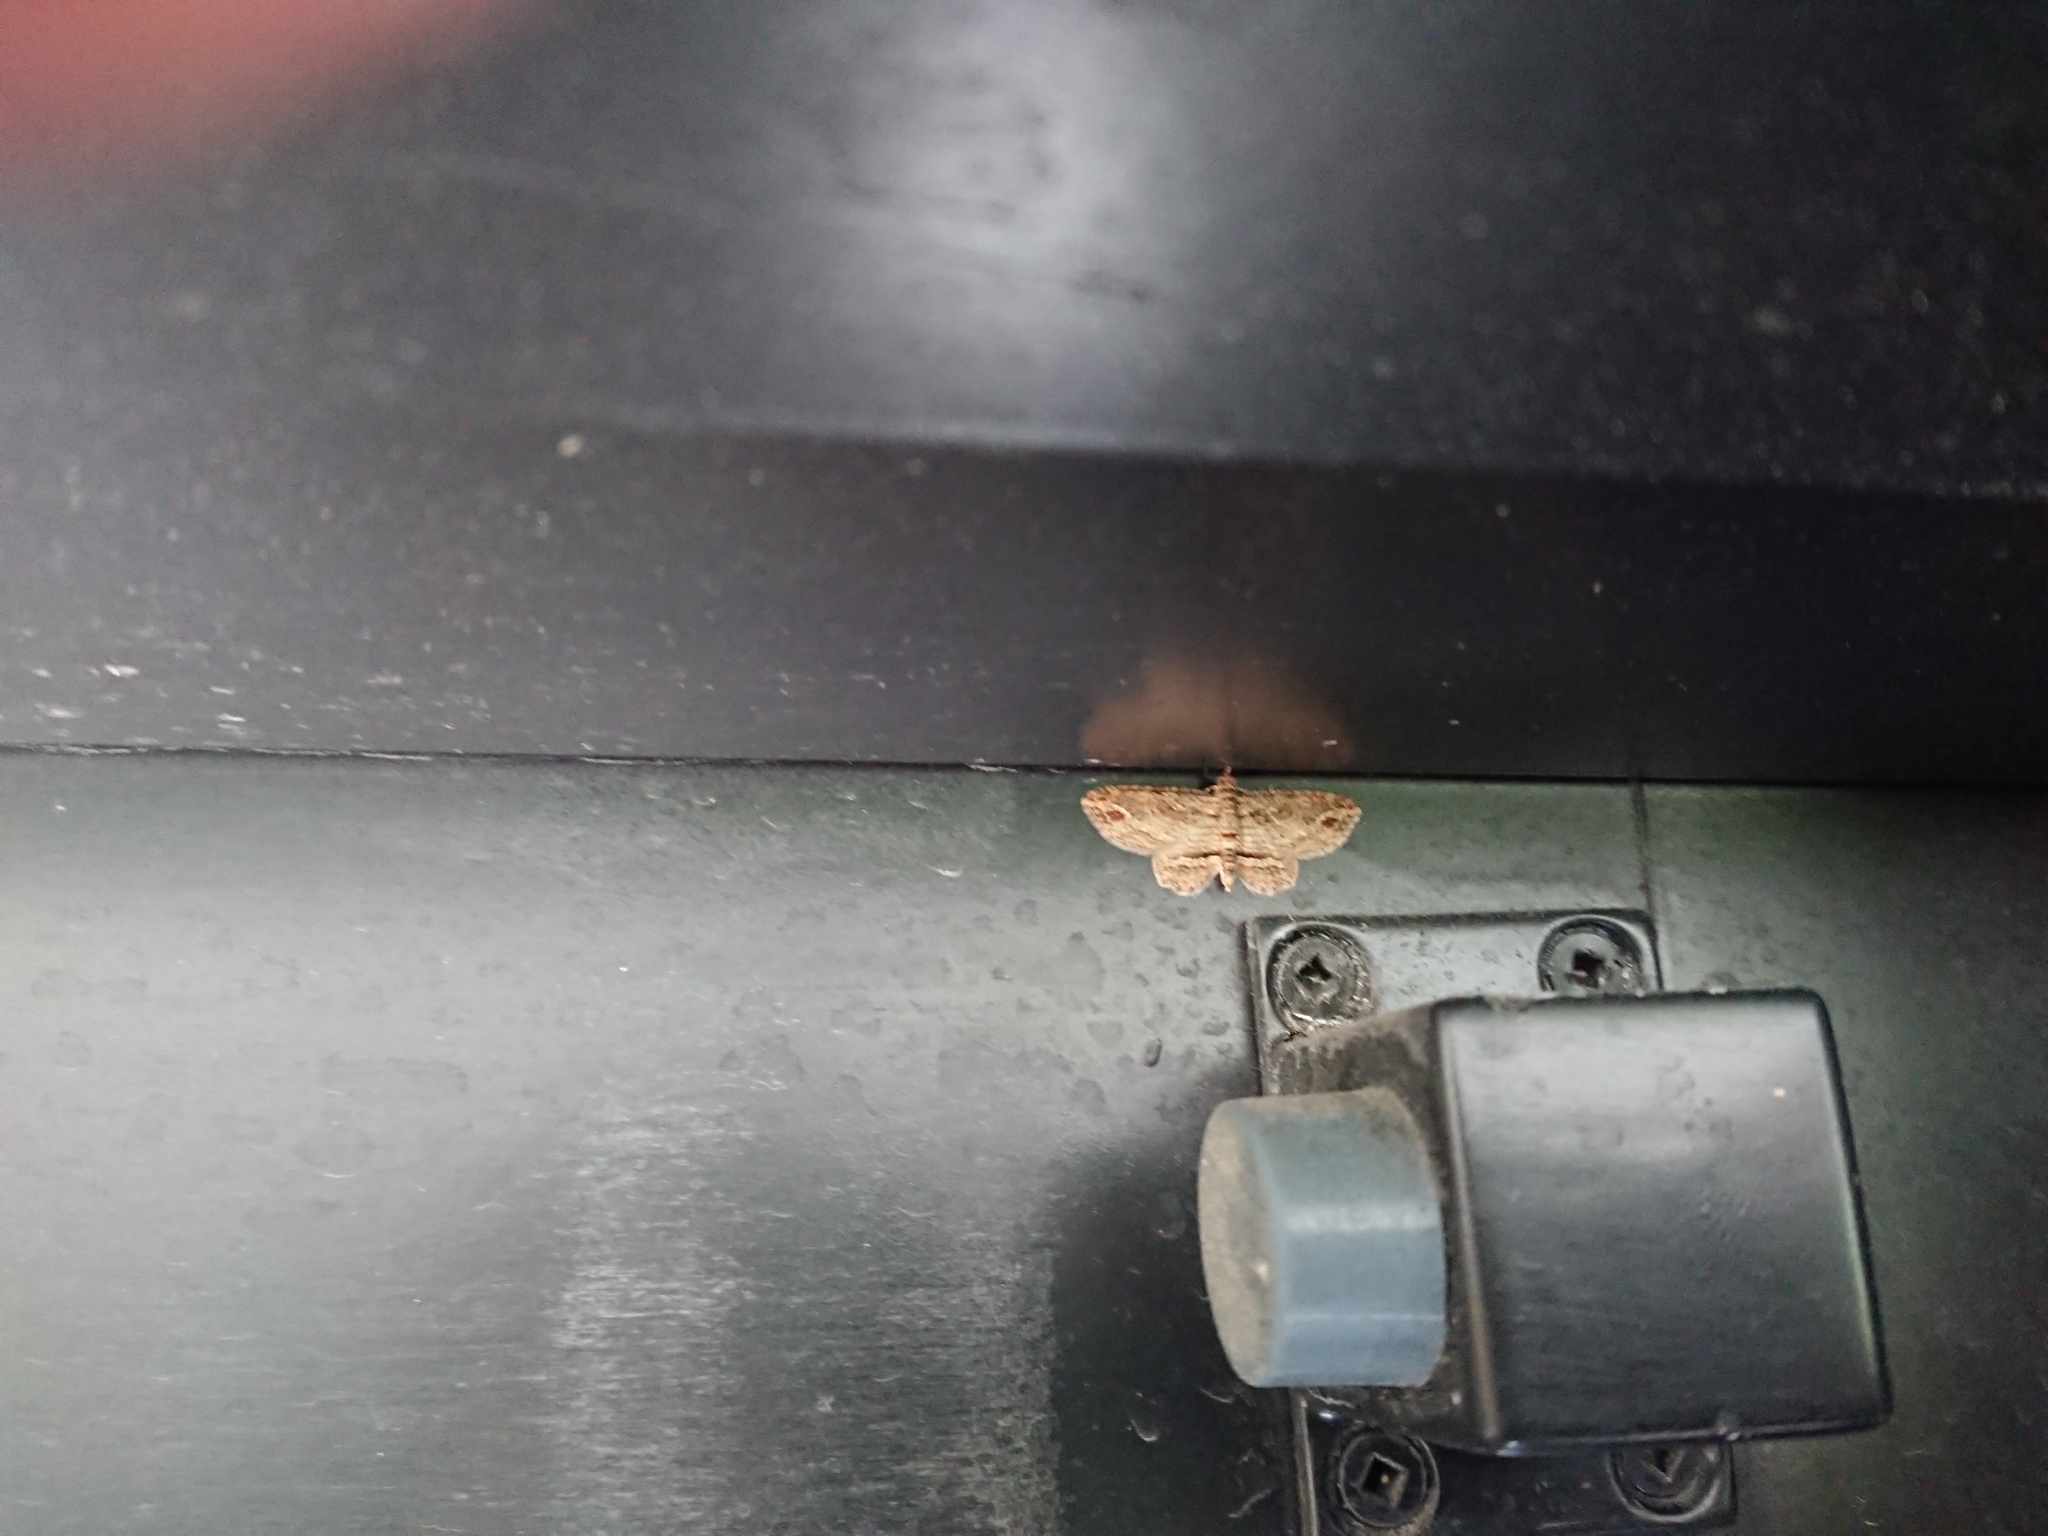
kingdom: Animalia
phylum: Arthropoda
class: Insecta
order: Lepidoptera
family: Geometridae
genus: Chloroclystis
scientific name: Chloroclystis filata
